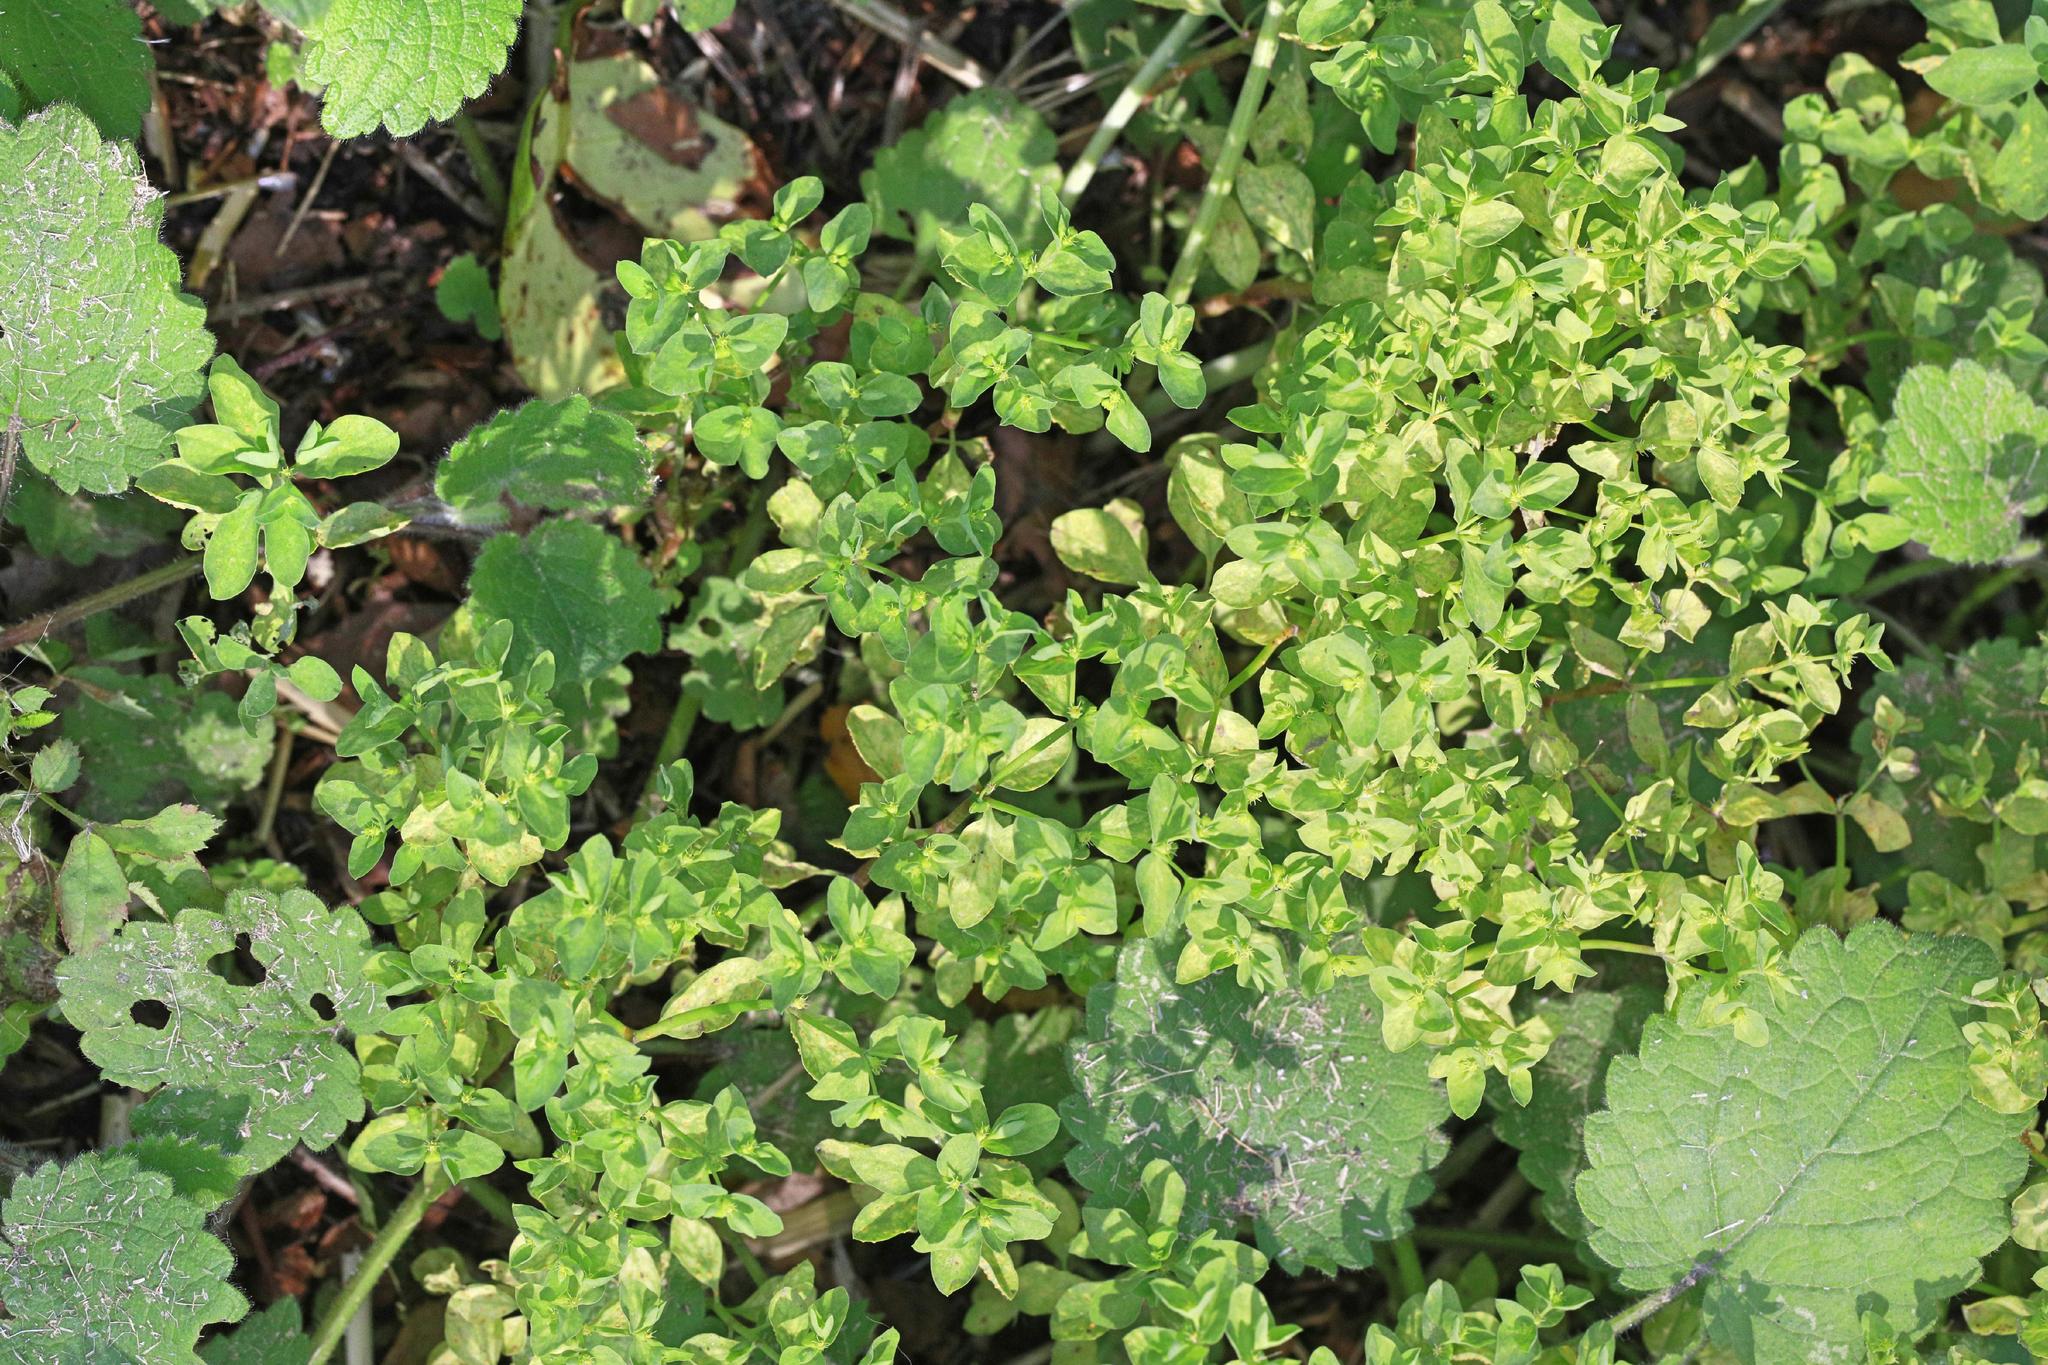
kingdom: Plantae
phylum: Tracheophyta
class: Magnoliopsida
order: Malpighiales
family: Euphorbiaceae
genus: Euphorbia
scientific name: Euphorbia peplus
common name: Petty spurge
